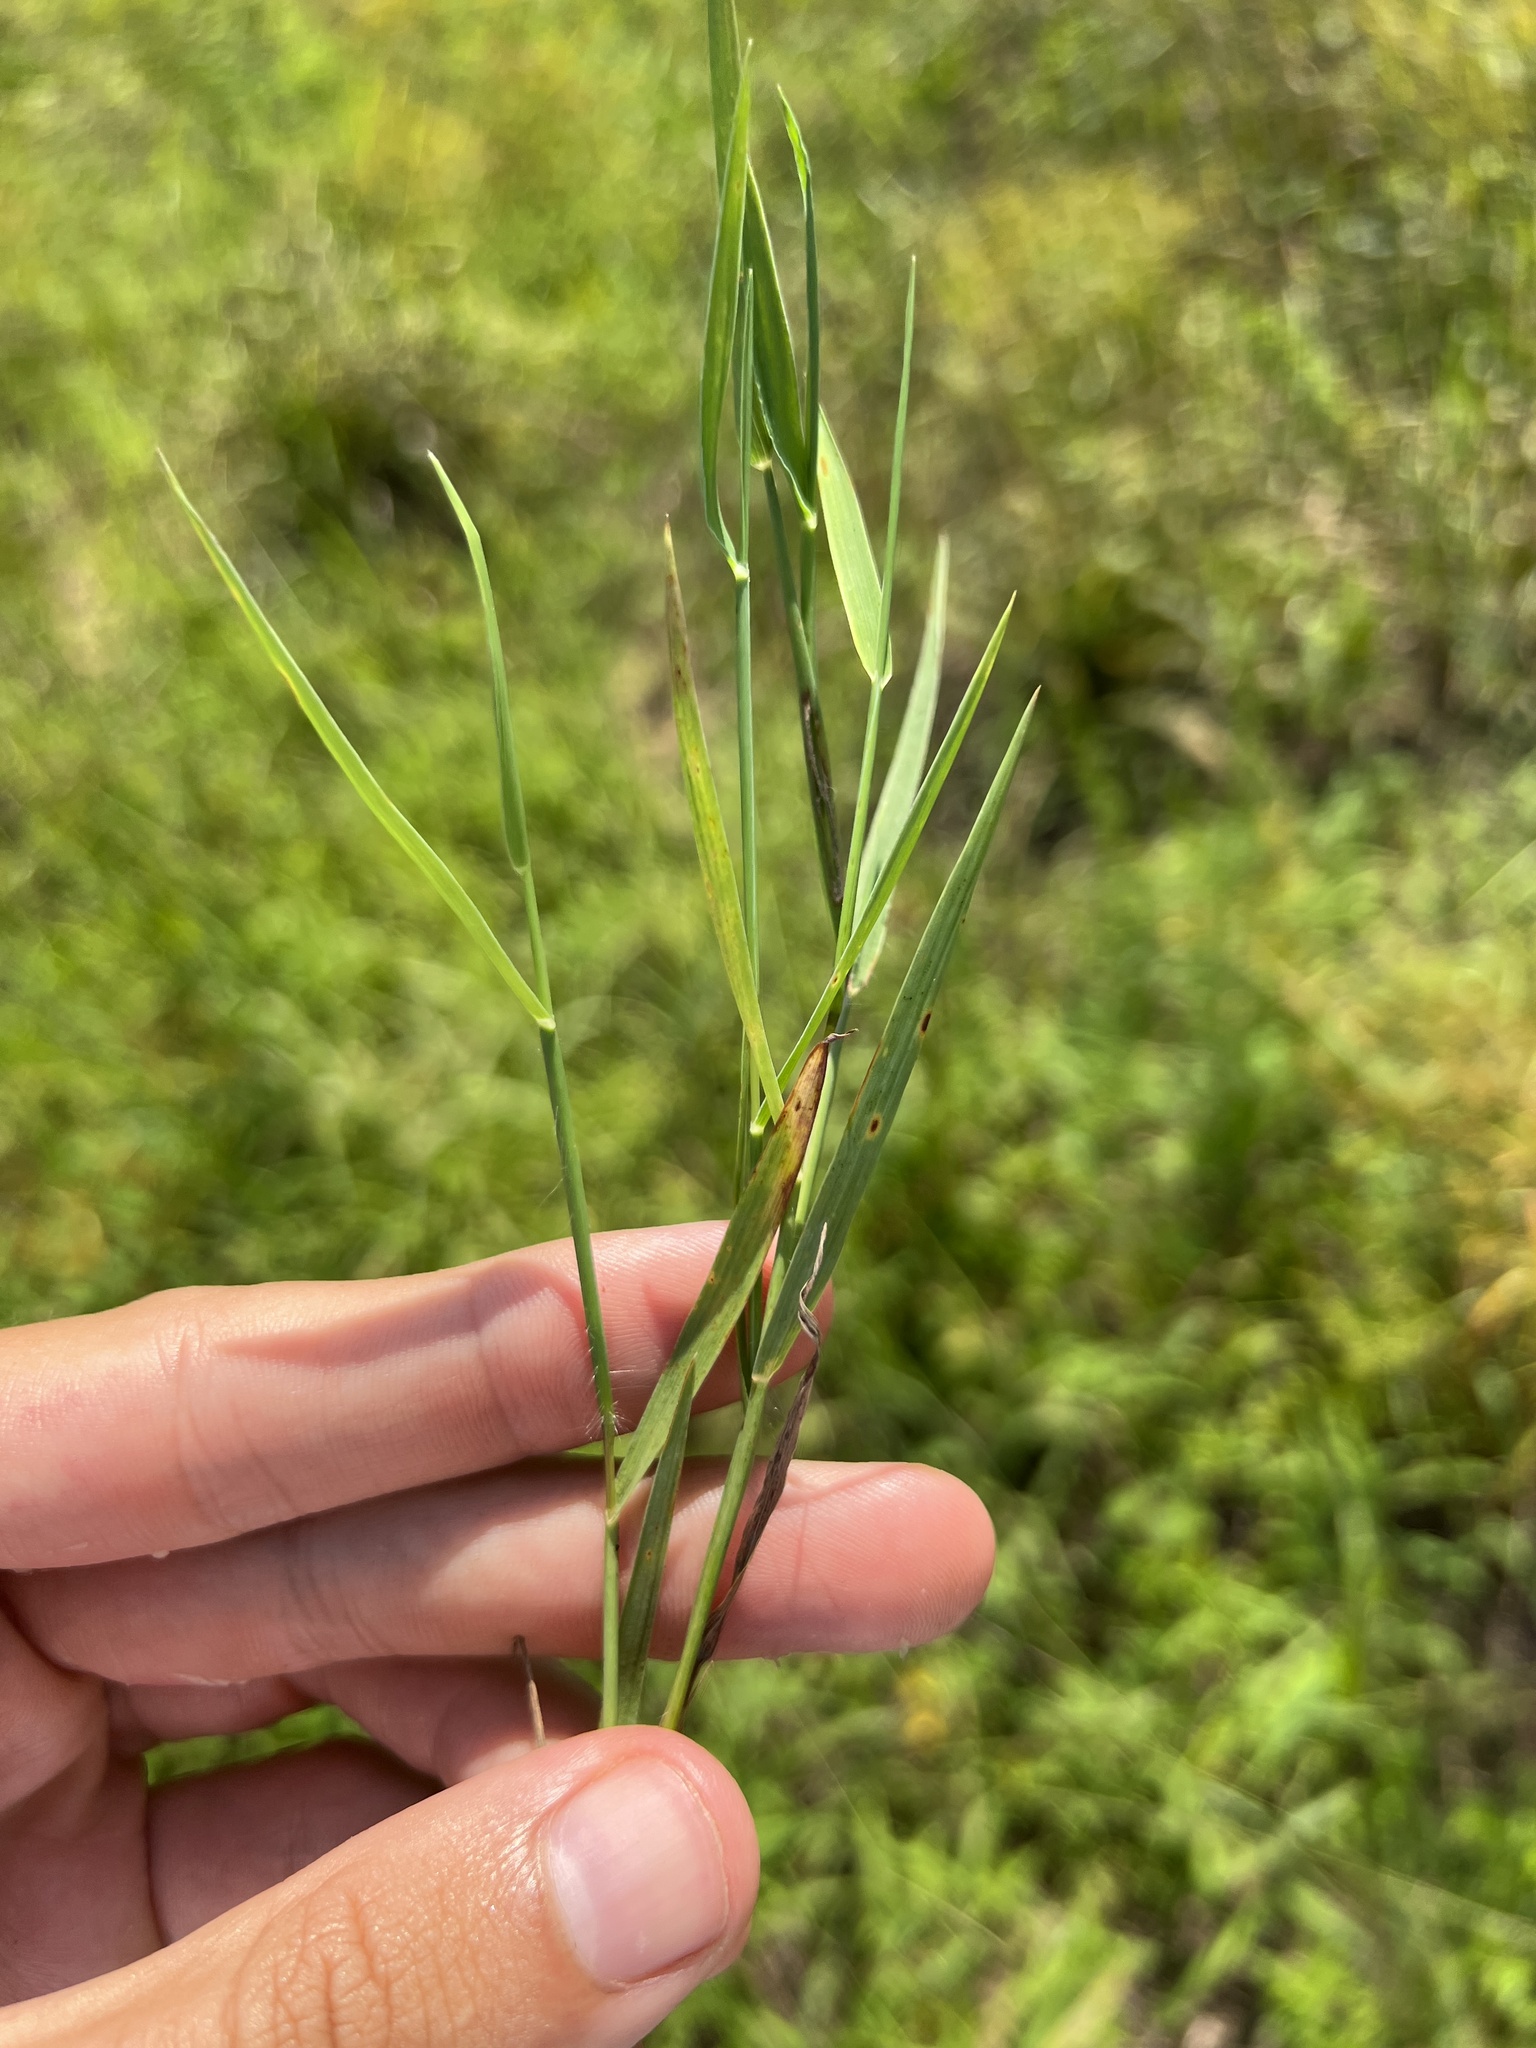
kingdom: Plantae
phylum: Tracheophyta
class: Liliopsida
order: Poales
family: Poaceae
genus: Digitaria
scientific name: Digitaria cognata
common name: Fall witchgrass
